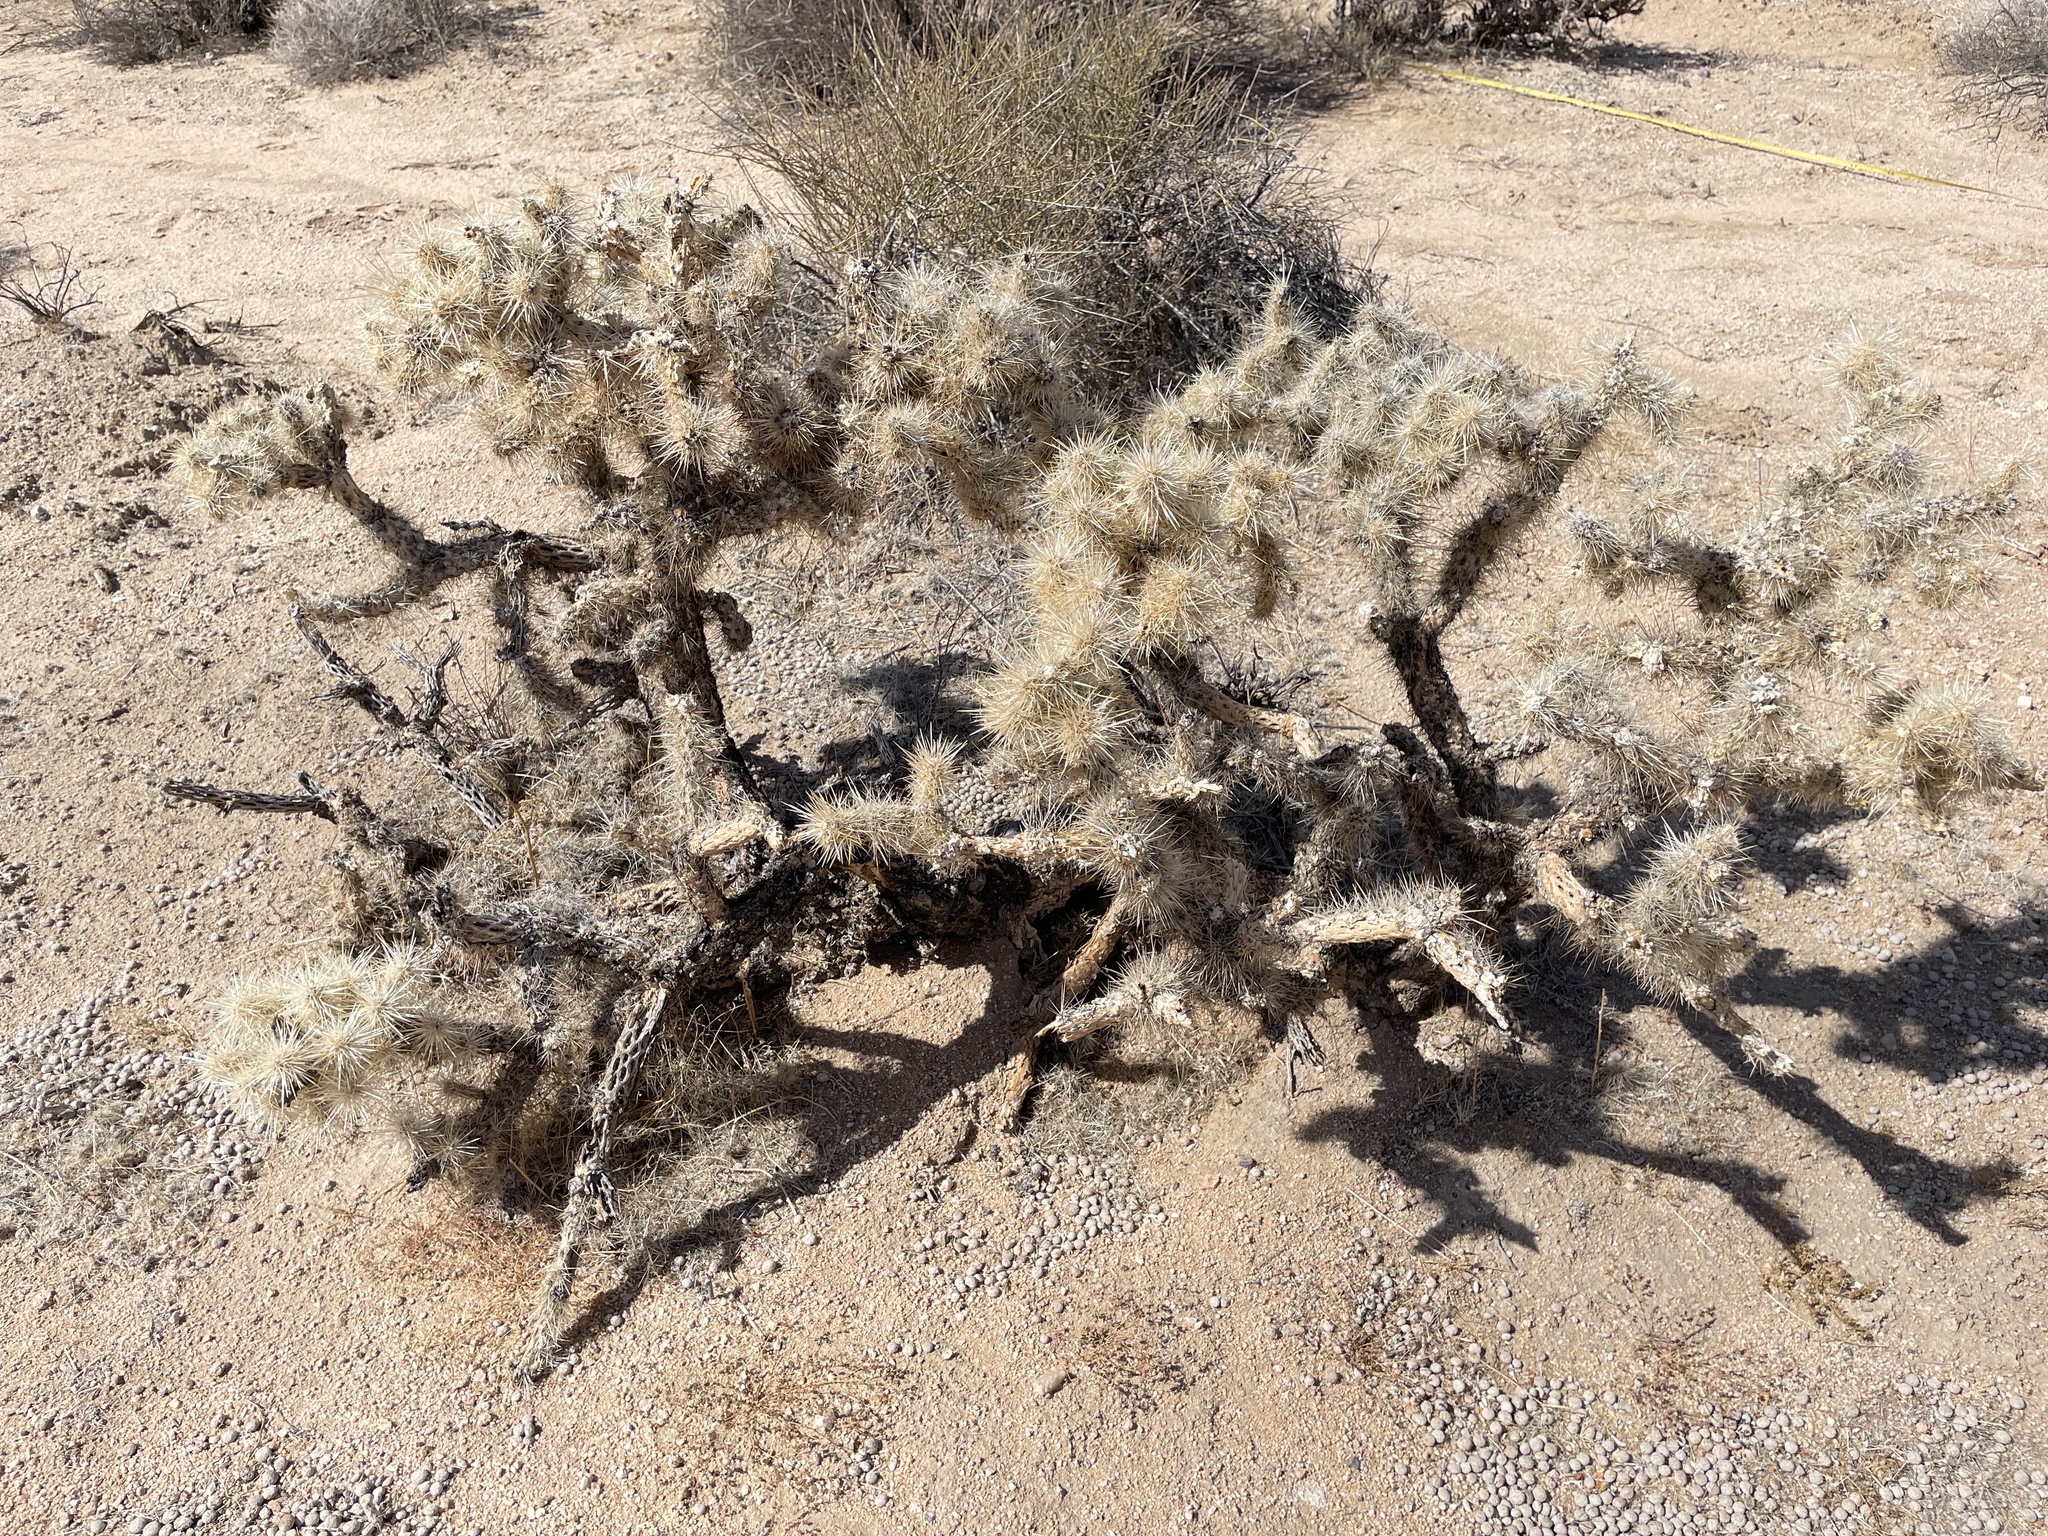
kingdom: Plantae
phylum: Tracheophyta
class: Magnoliopsida
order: Caryophyllales
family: Cactaceae
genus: Cylindropuntia
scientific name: Cylindropuntia echinocarpa
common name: Ground cholla
